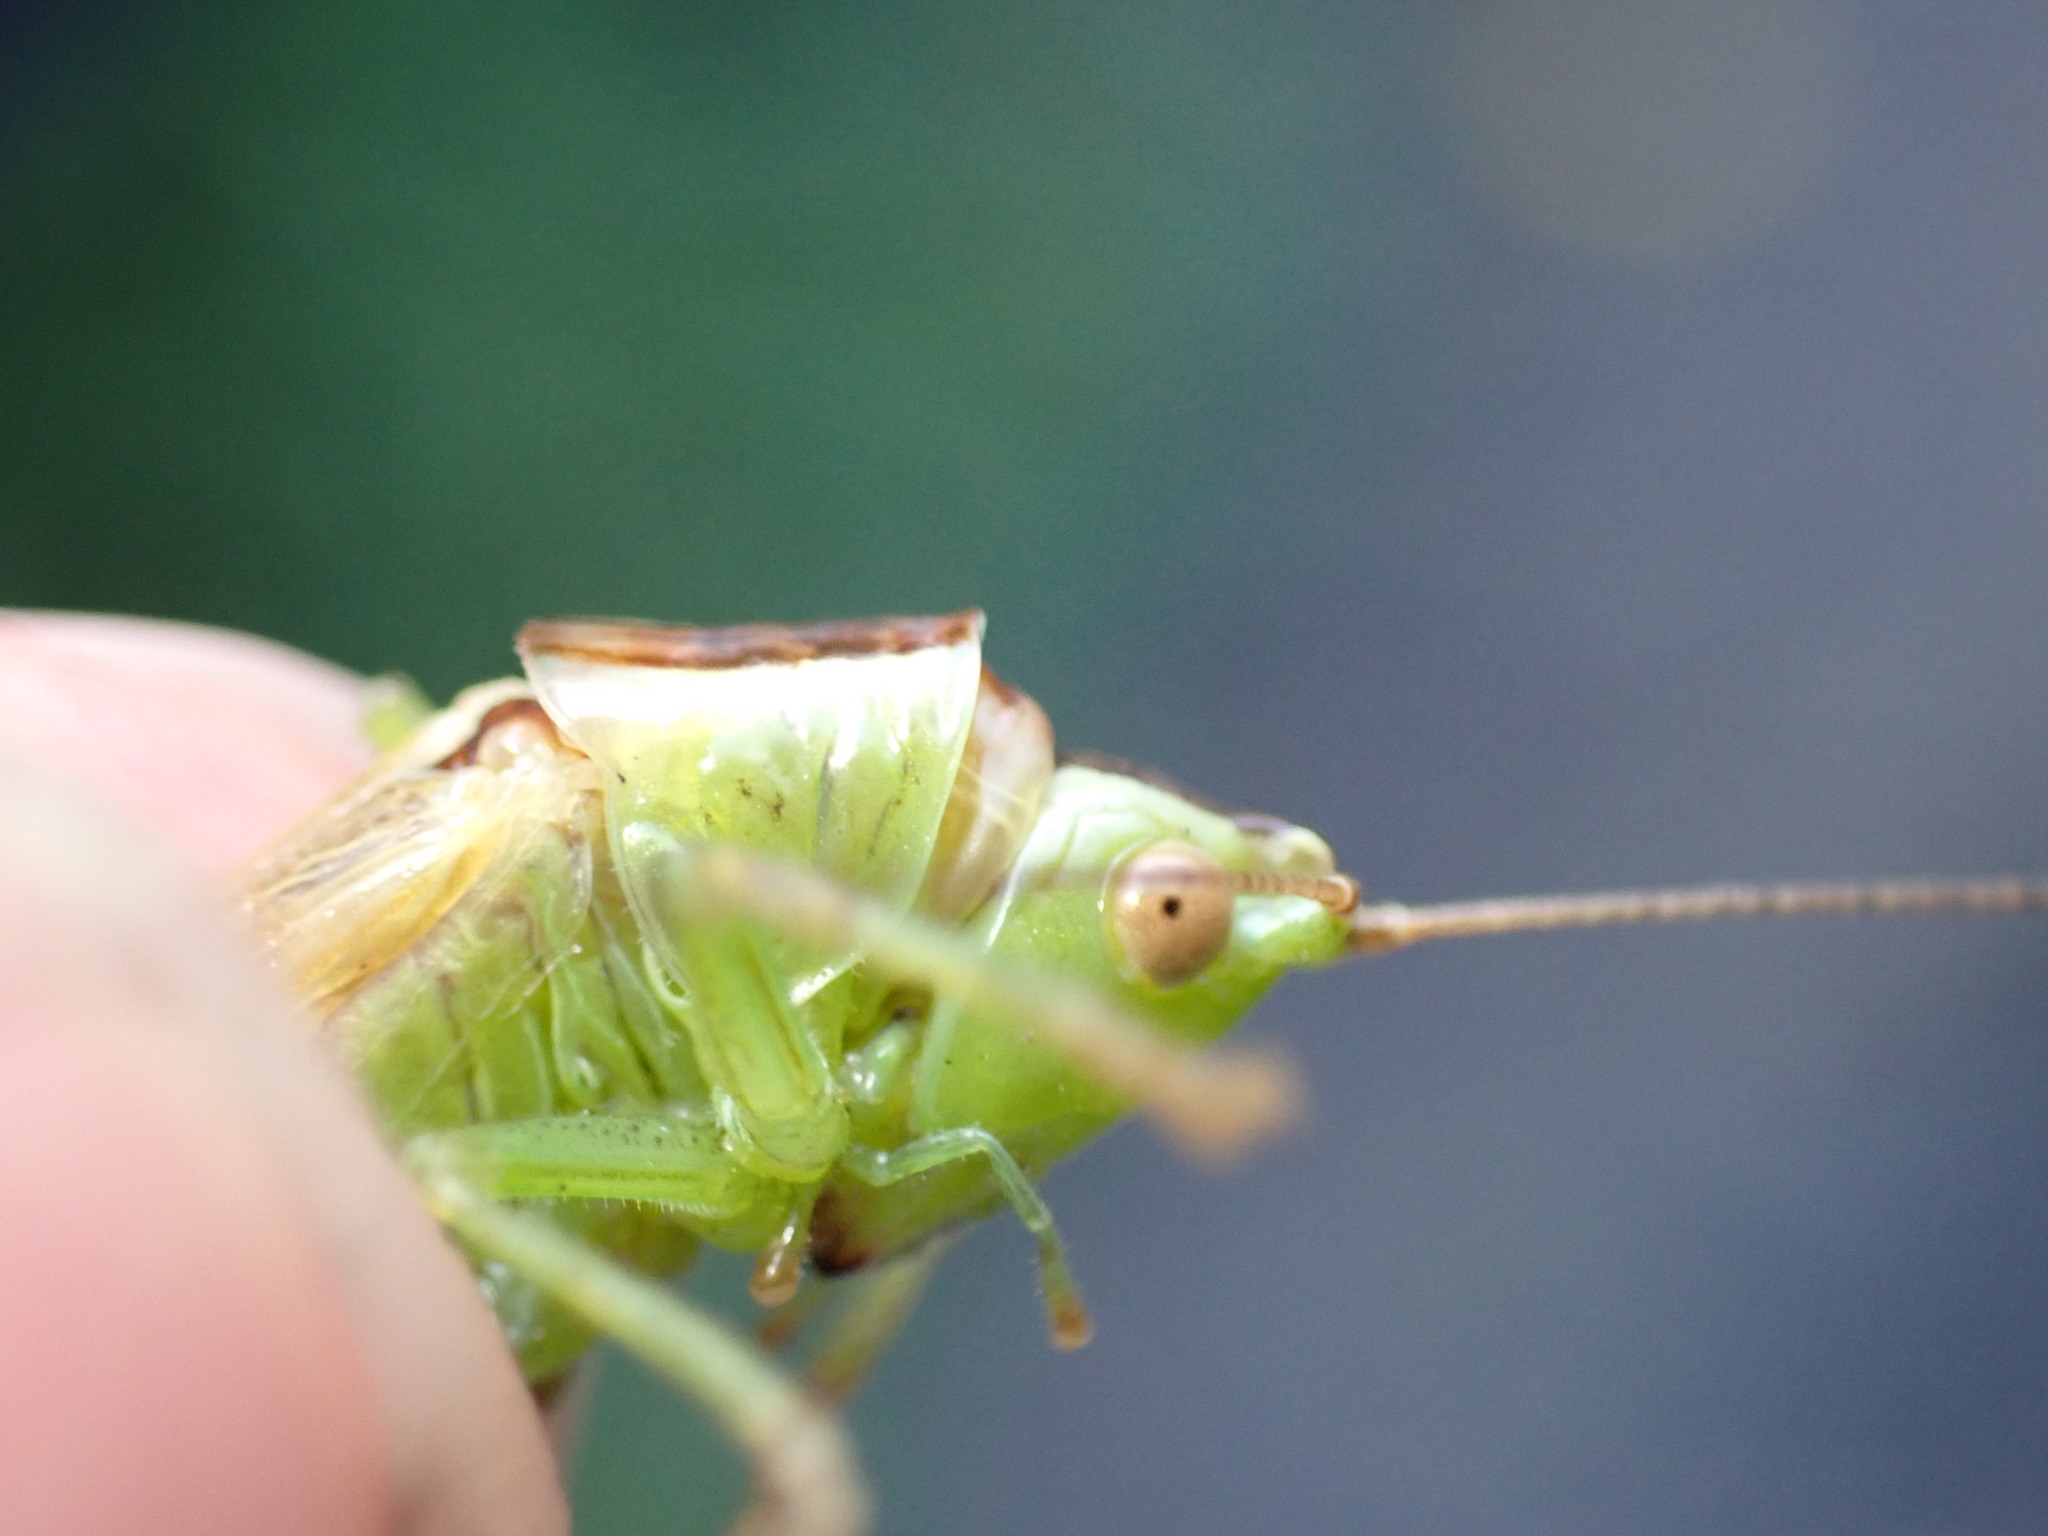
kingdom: Animalia
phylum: Arthropoda
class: Insecta
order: Orthoptera
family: Tettigoniidae
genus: Conocephalus
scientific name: Conocephalus fuscus
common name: Long-winged conehead
